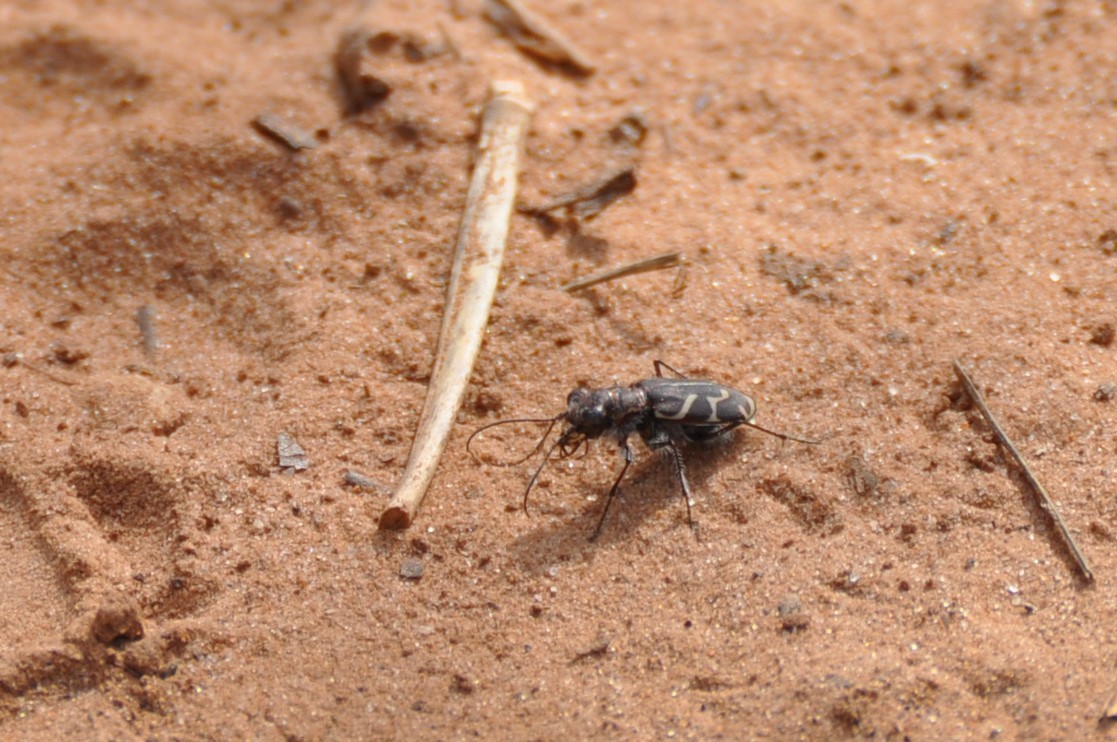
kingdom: Animalia
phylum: Arthropoda
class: Insecta
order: Coleoptera
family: Carabidae
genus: Cicindela
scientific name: Cicindela tranquebarica
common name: Oblique-lined tiger beetle
